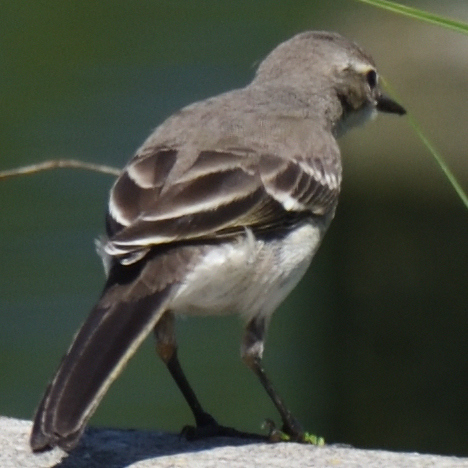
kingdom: Animalia
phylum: Chordata
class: Aves
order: Passeriformes
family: Motacillidae
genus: Motacilla
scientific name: Motacilla capensis
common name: Cape wagtail
